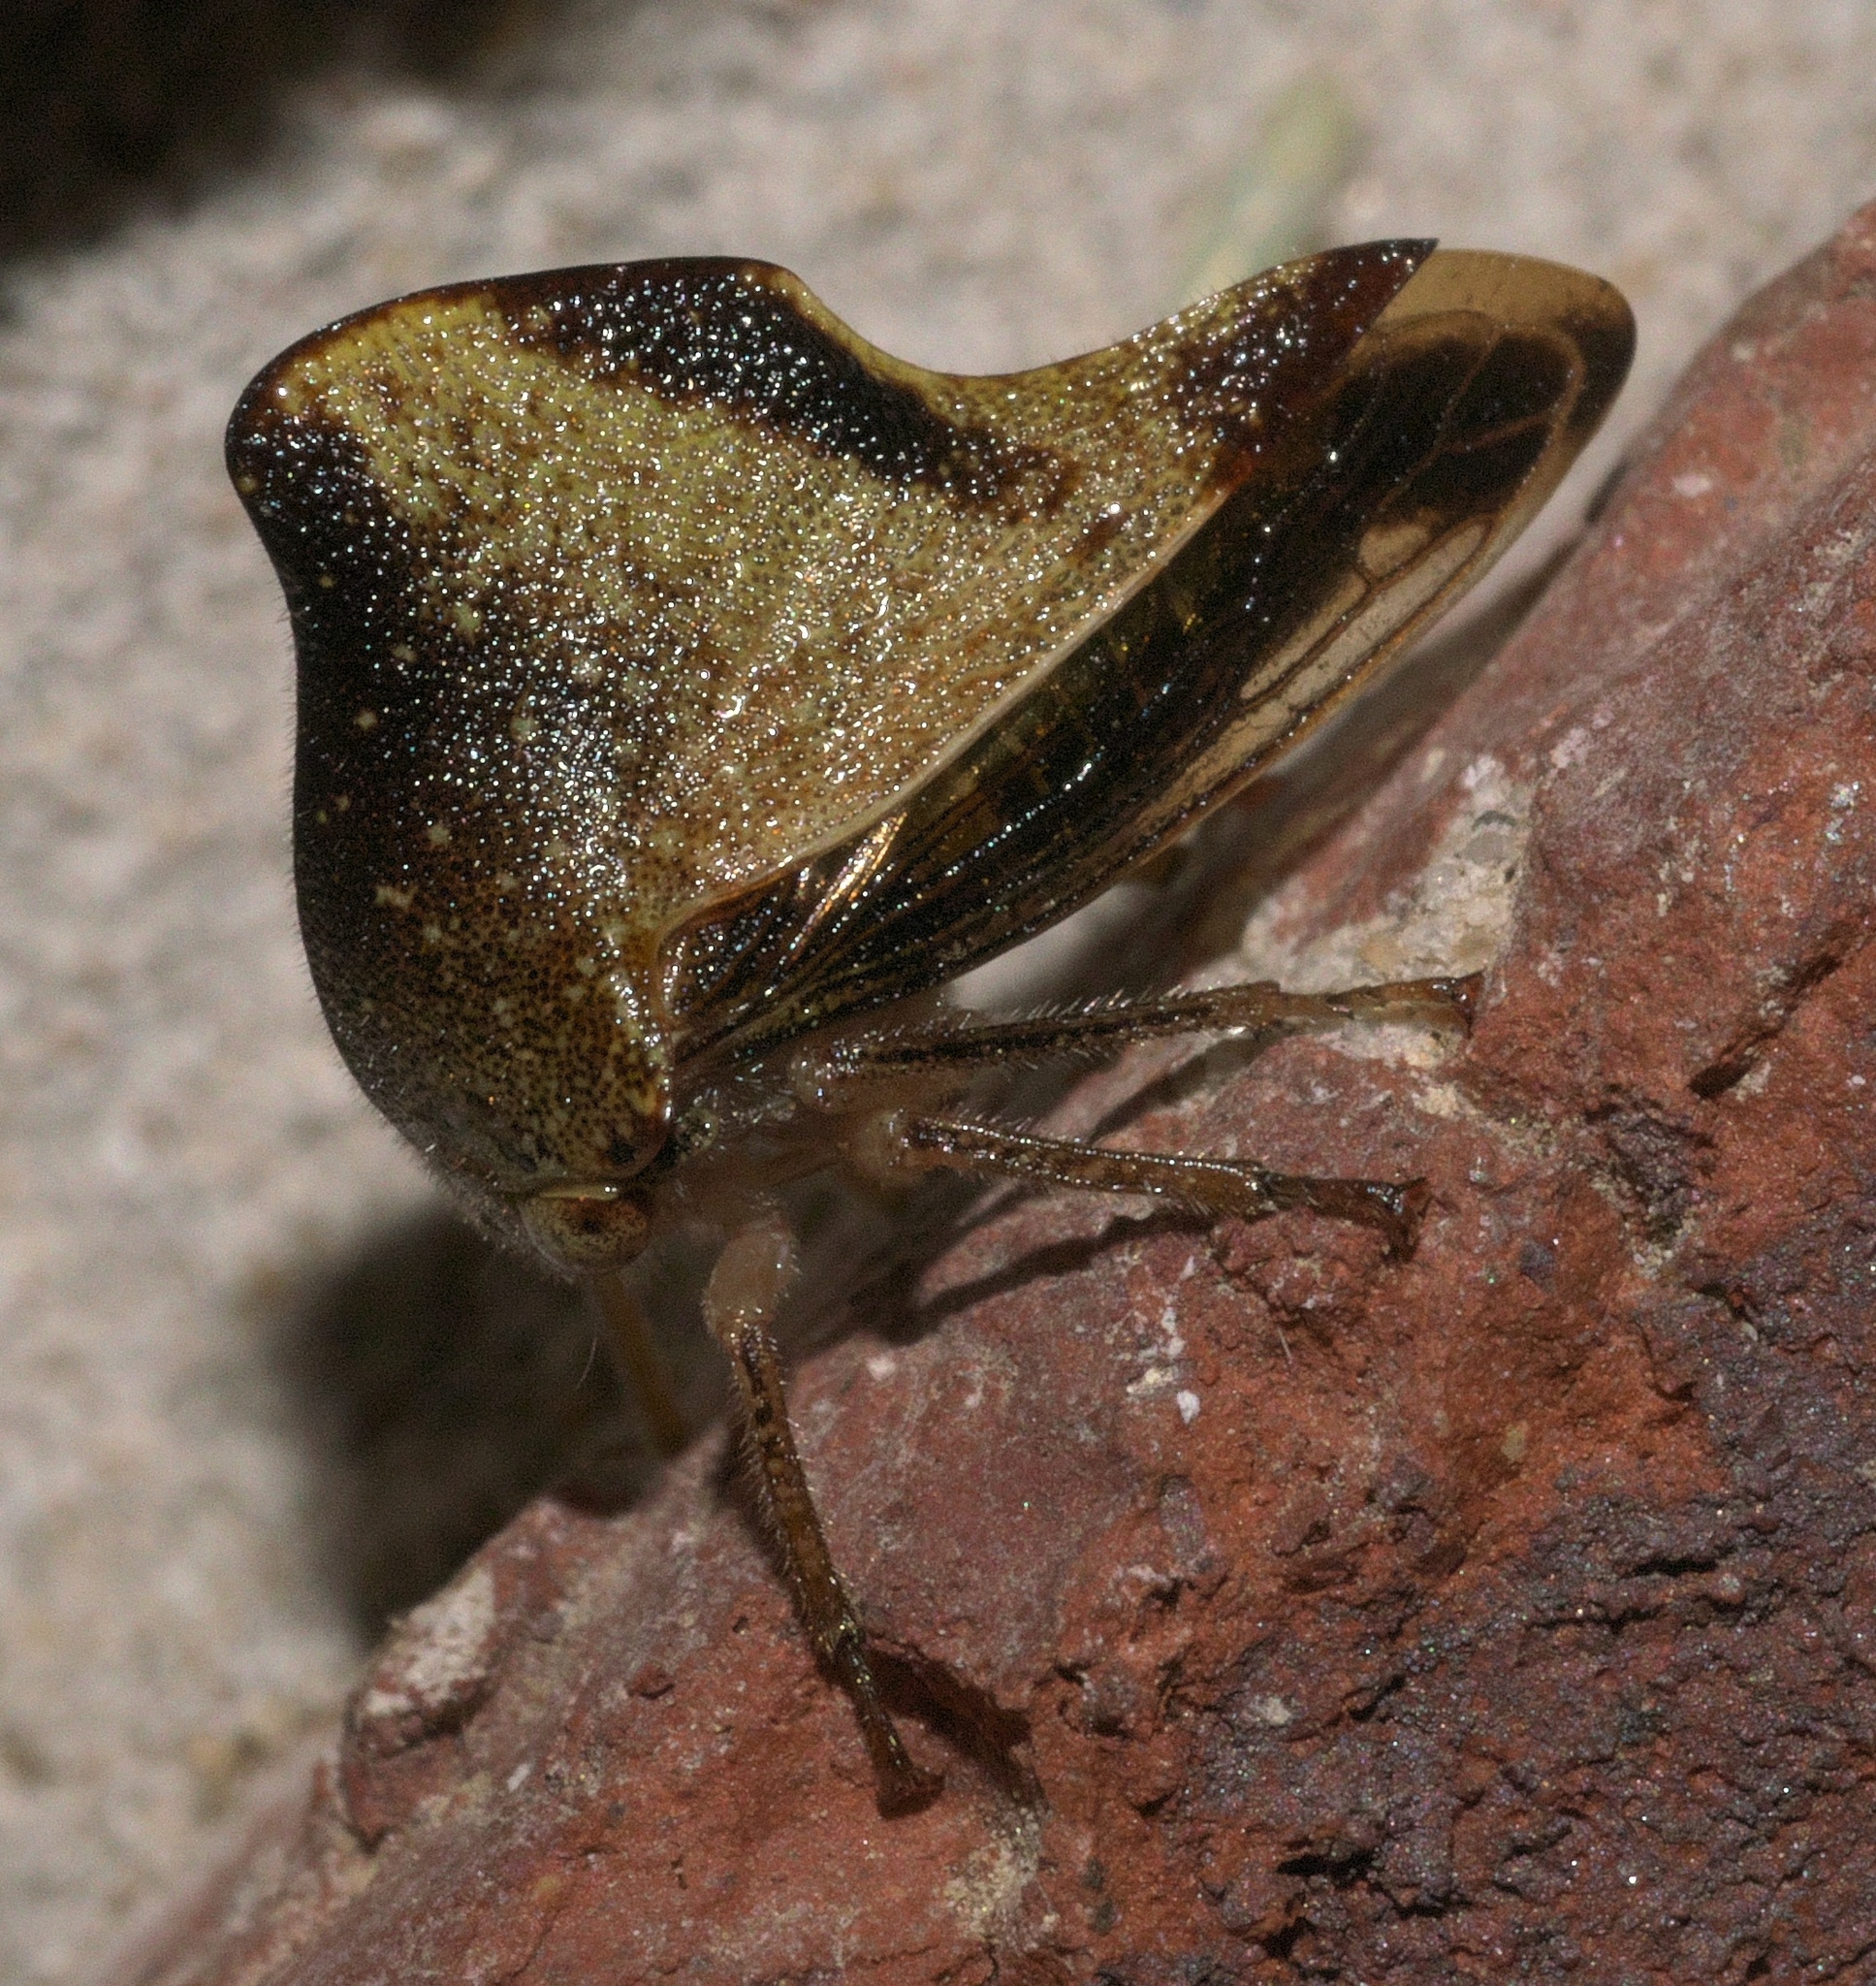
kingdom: Animalia
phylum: Arthropoda
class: Insecta
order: Hemiptera
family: Membracidae
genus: Helonica
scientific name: Helonica excelsa
